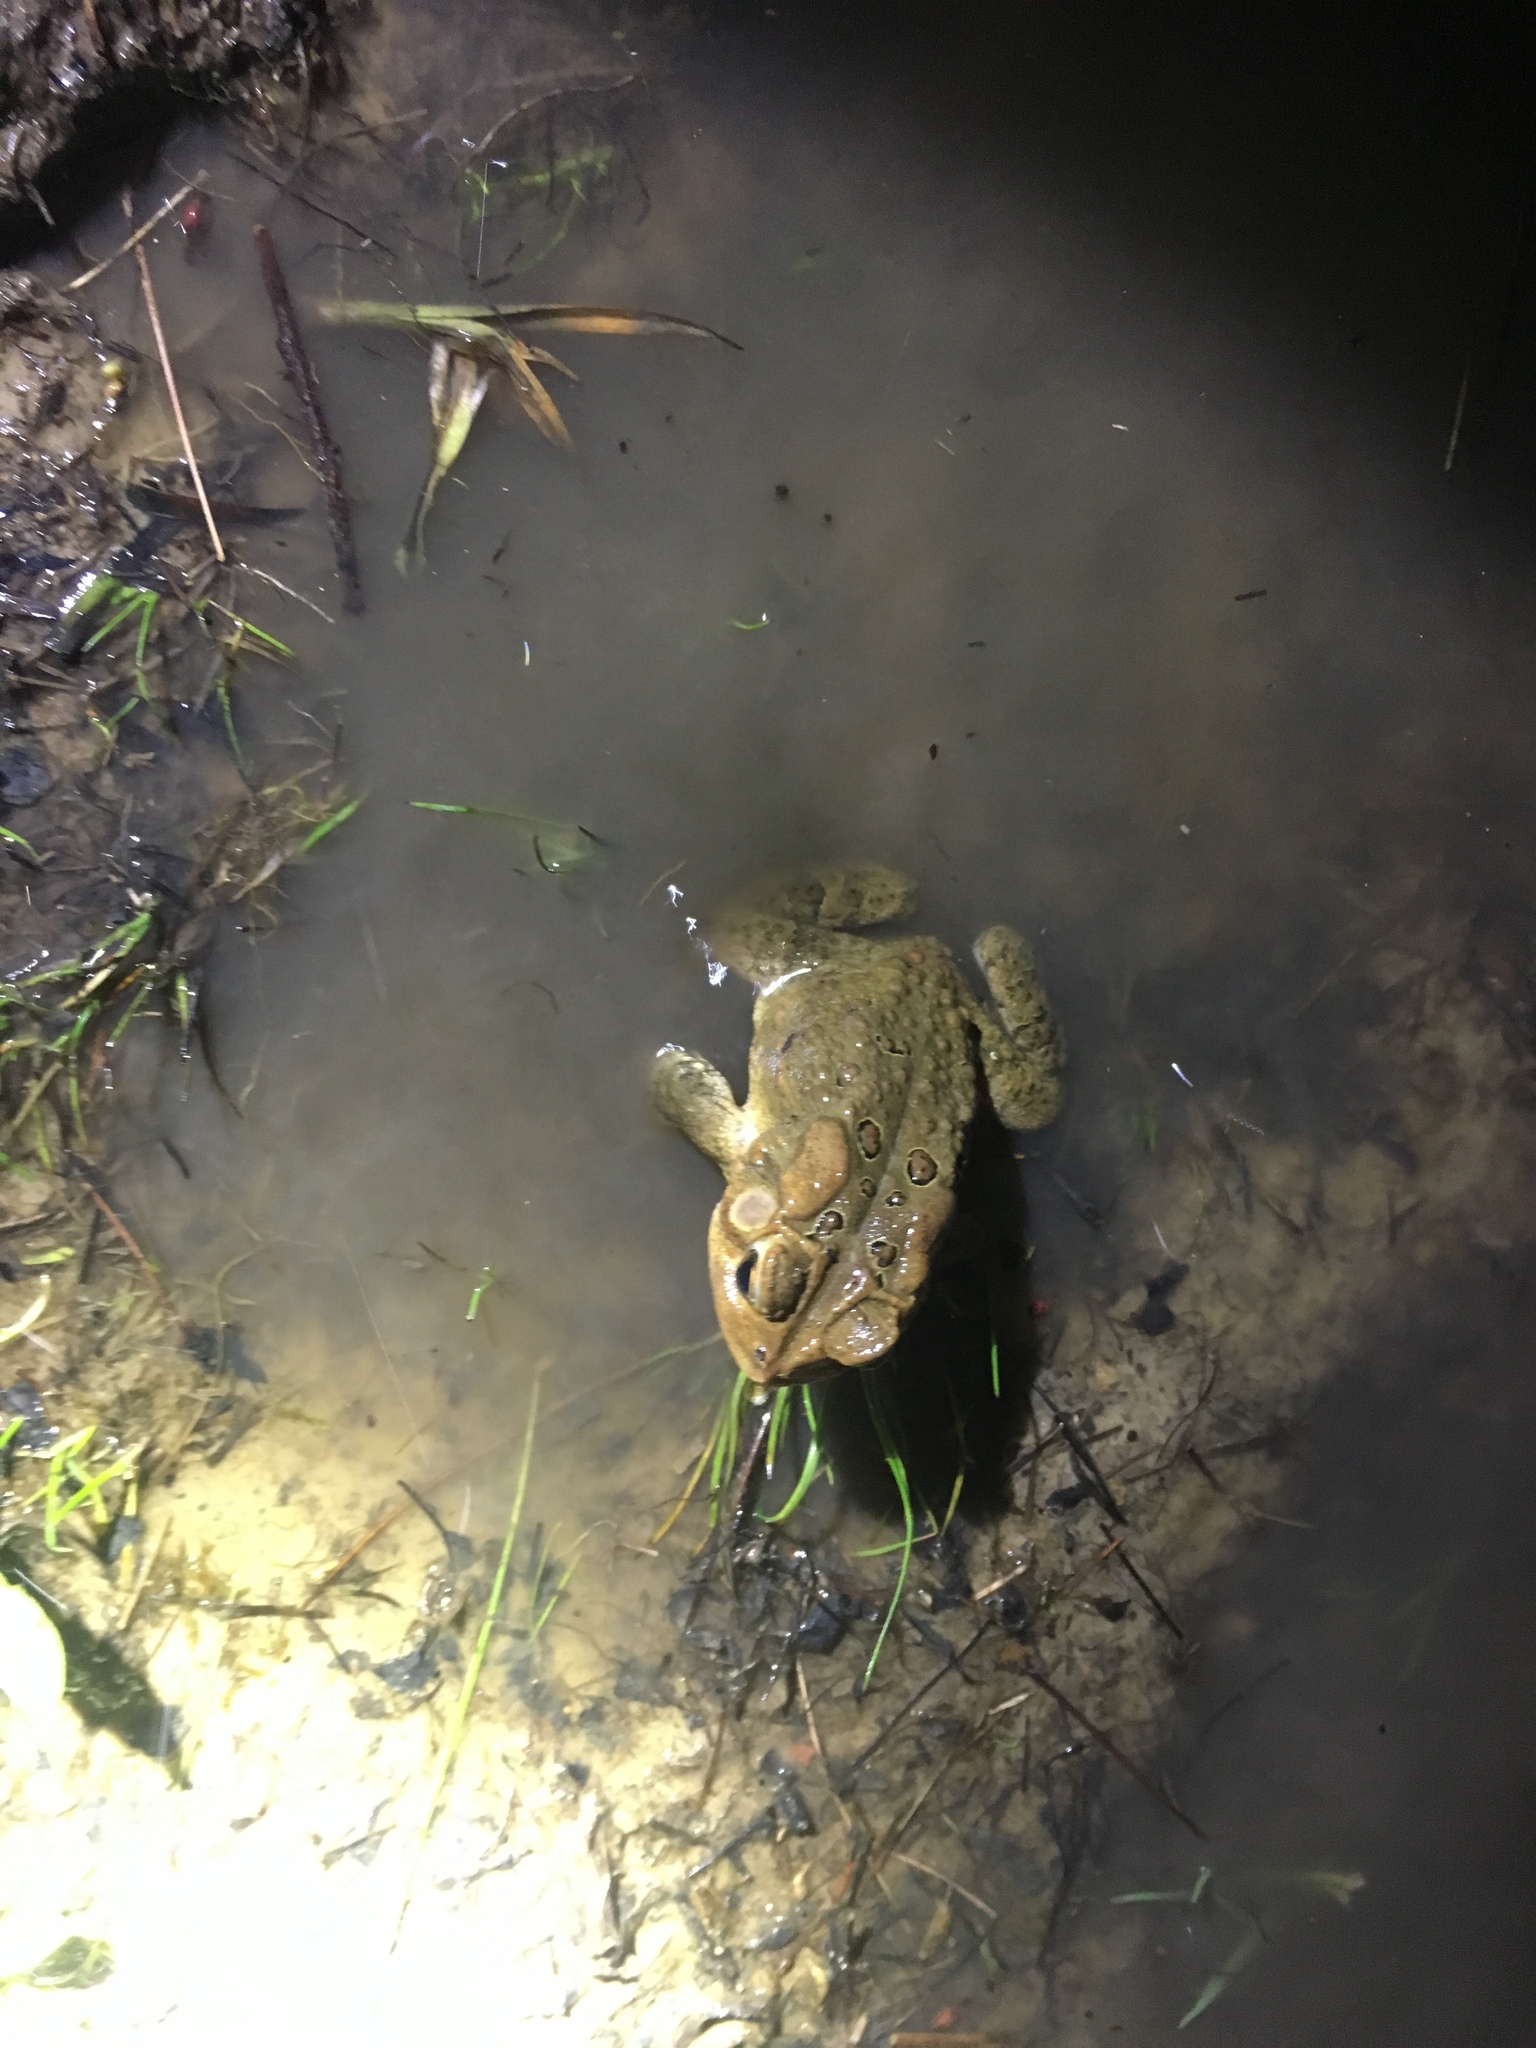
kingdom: Animalia
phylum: Chordata
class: Amphibia
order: Anura
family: Bufonidae
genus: Anaxyrus
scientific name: Anaxyrus americanus
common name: American toad
